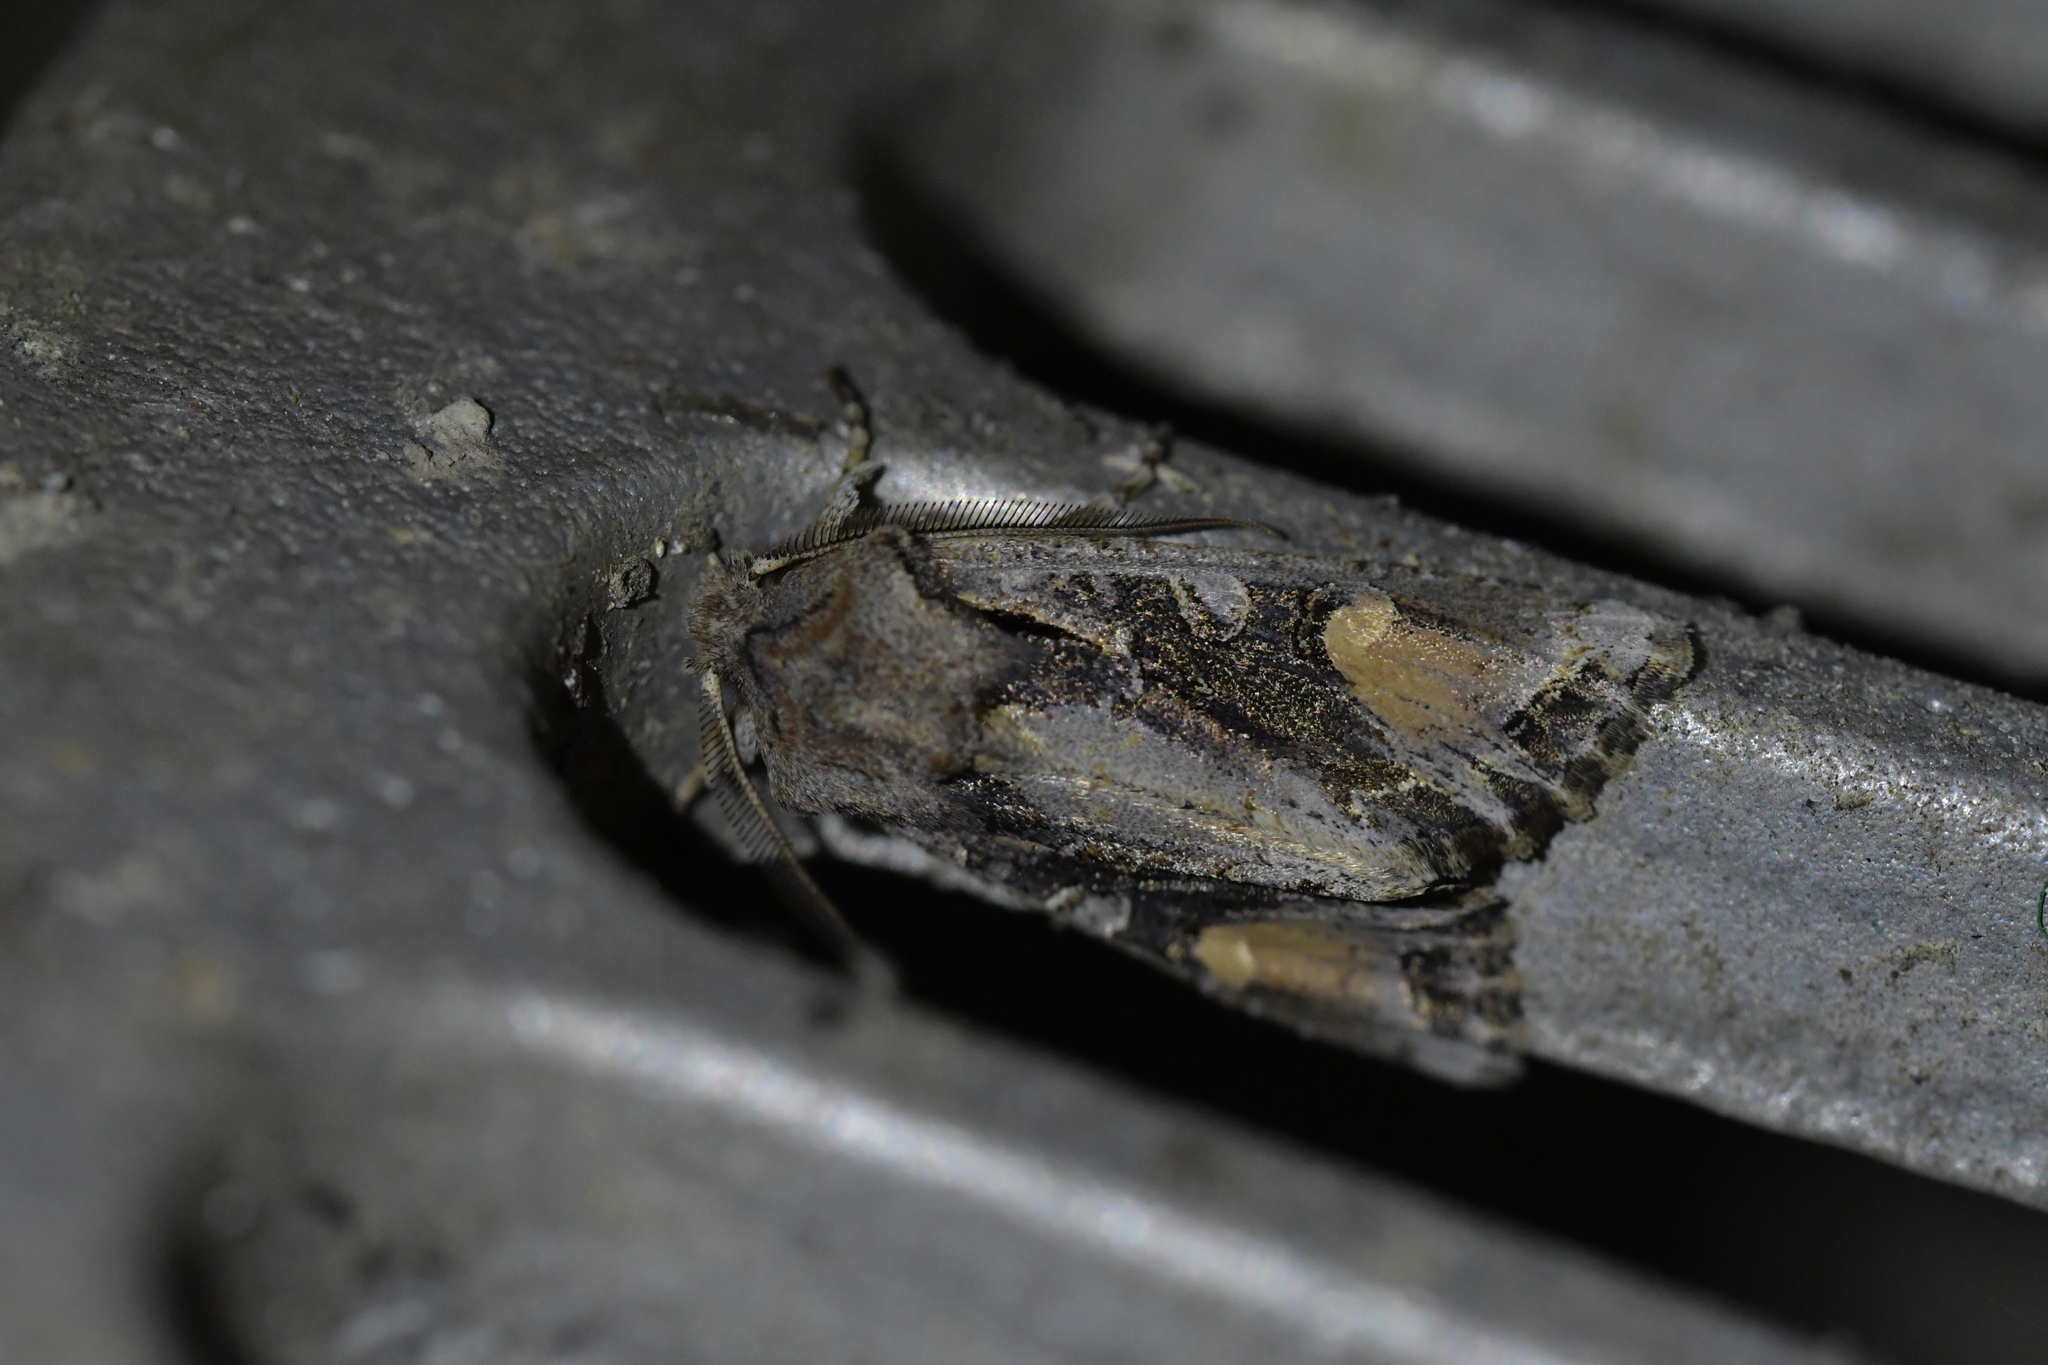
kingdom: Animalia
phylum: Arthropoda
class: Insecta
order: Lepidoptera
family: Noctuidae
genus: Ichneutica
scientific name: Ichneutica
